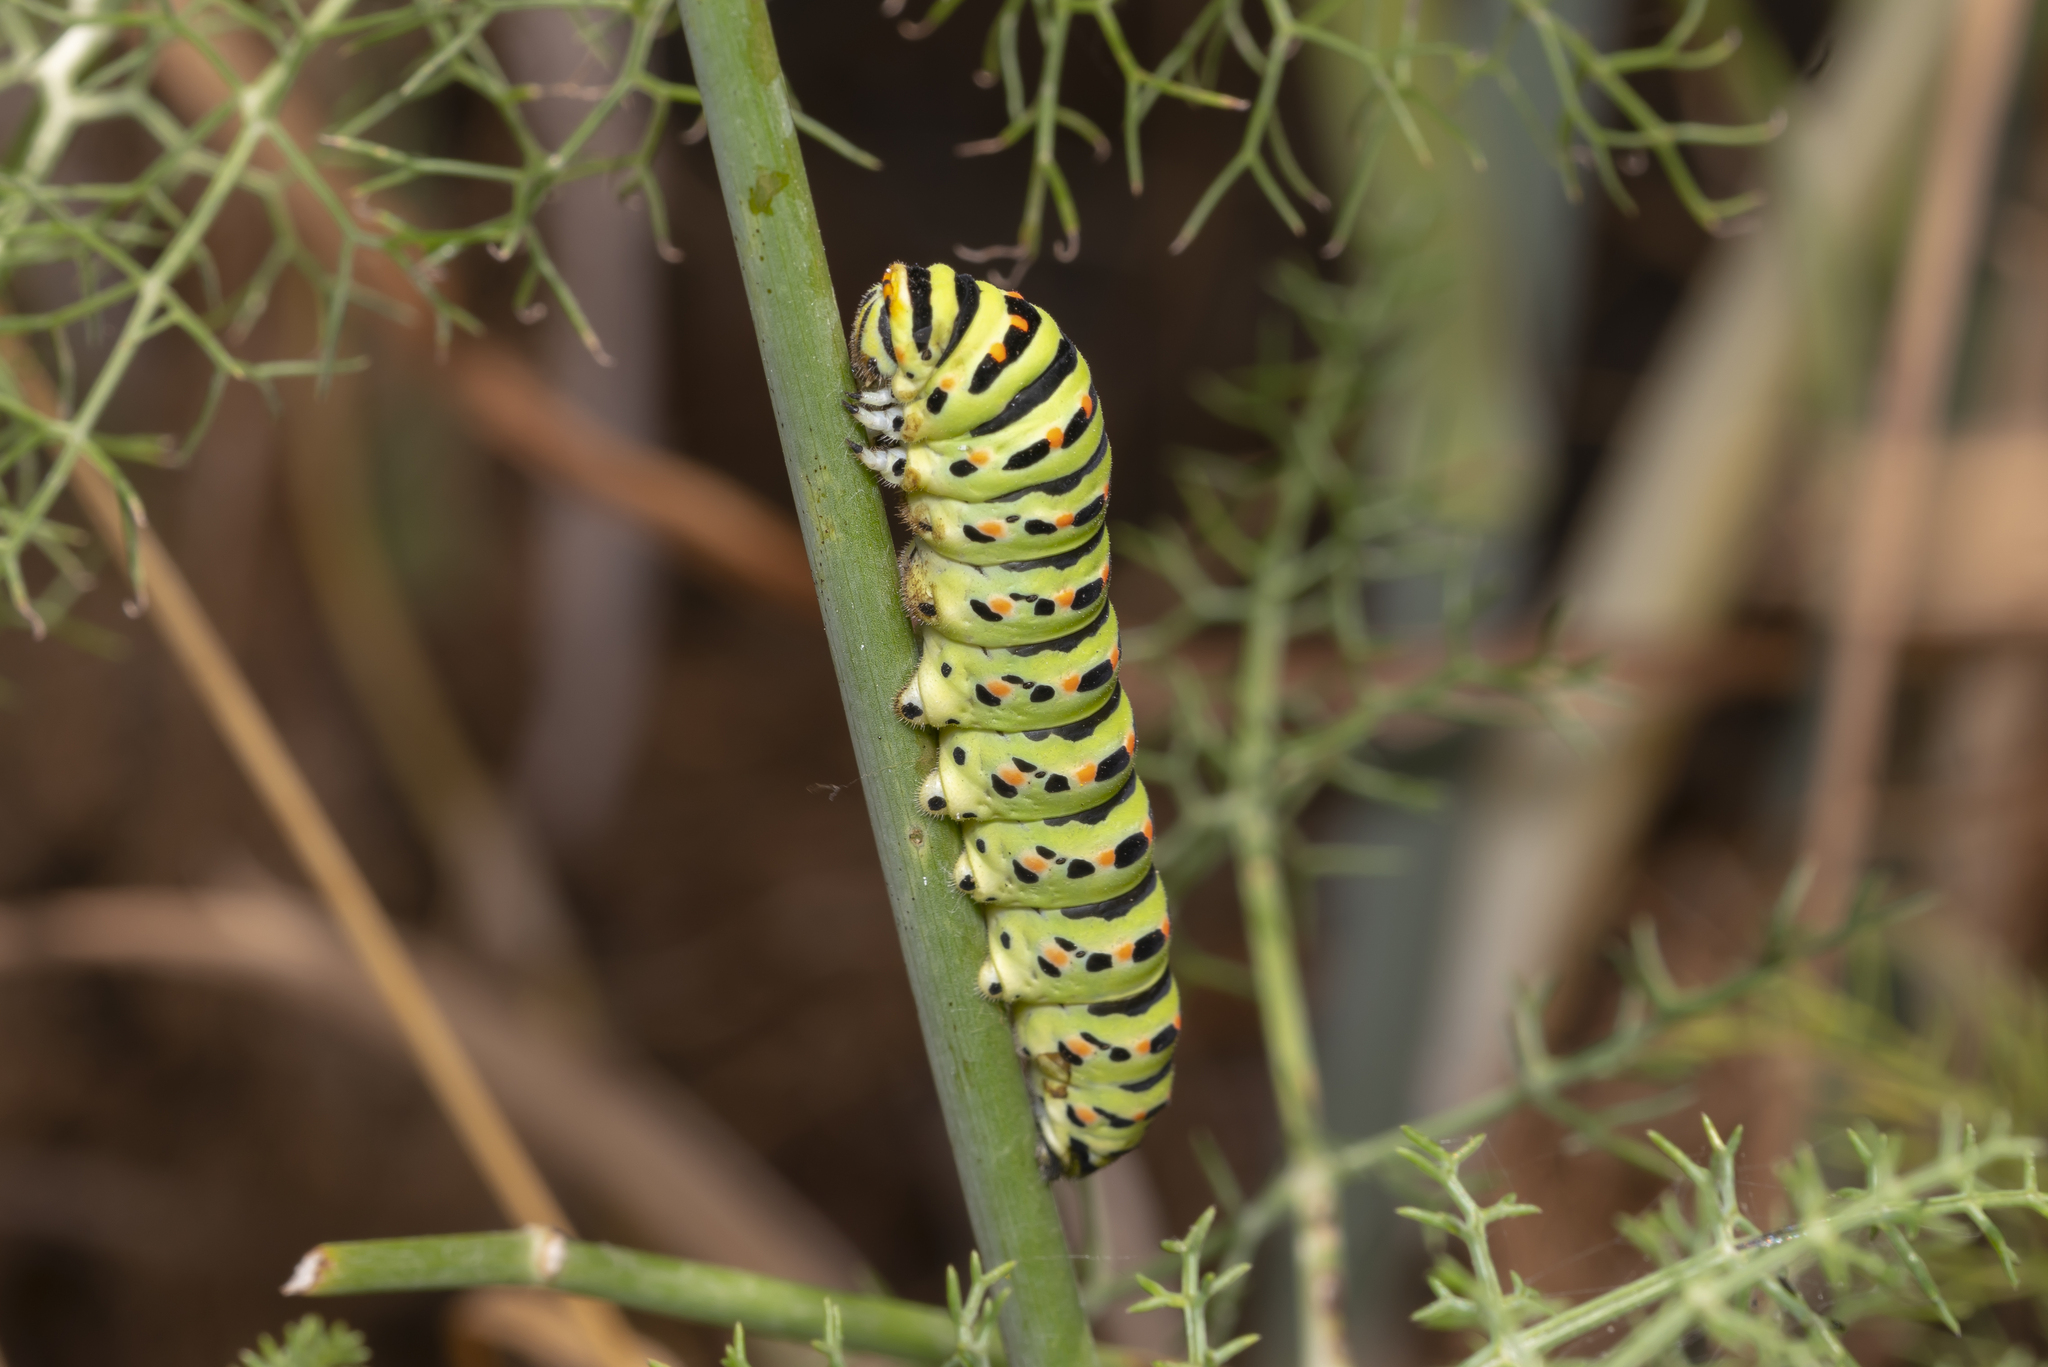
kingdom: Animalia
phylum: Arthropoda
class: Insecta
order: Lepidoptera
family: Papilionidae
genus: Papilio
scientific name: Papilio machaon
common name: Swallowtail
